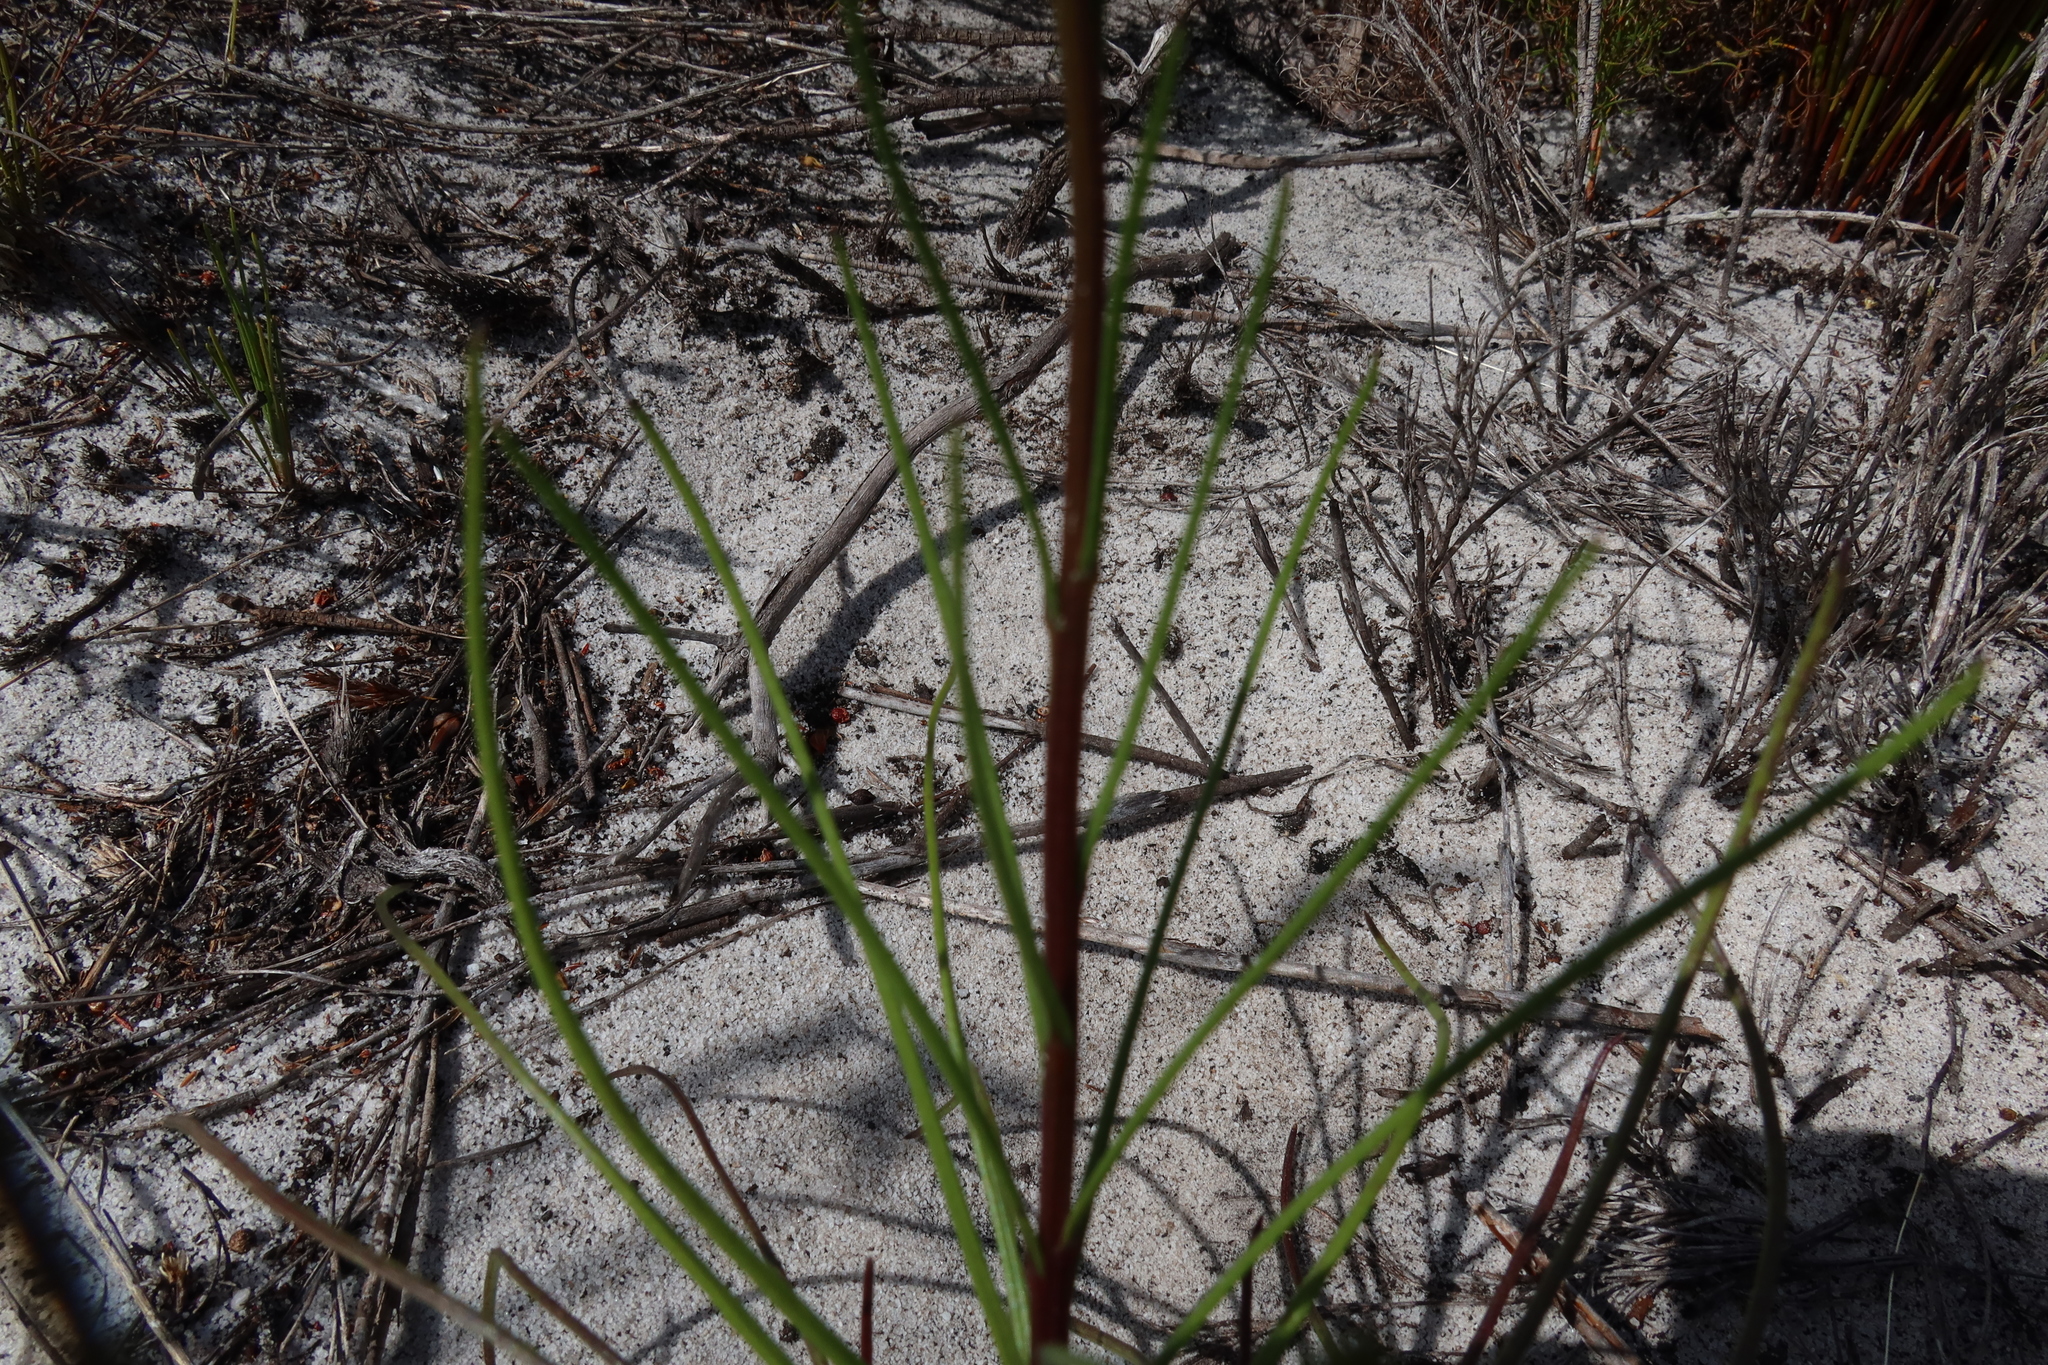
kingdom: Plantae
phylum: Tracheophyta
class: Magnoliopsida
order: Asterales
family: Asteraceae
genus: Senecio
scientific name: Senecio umbellatus
